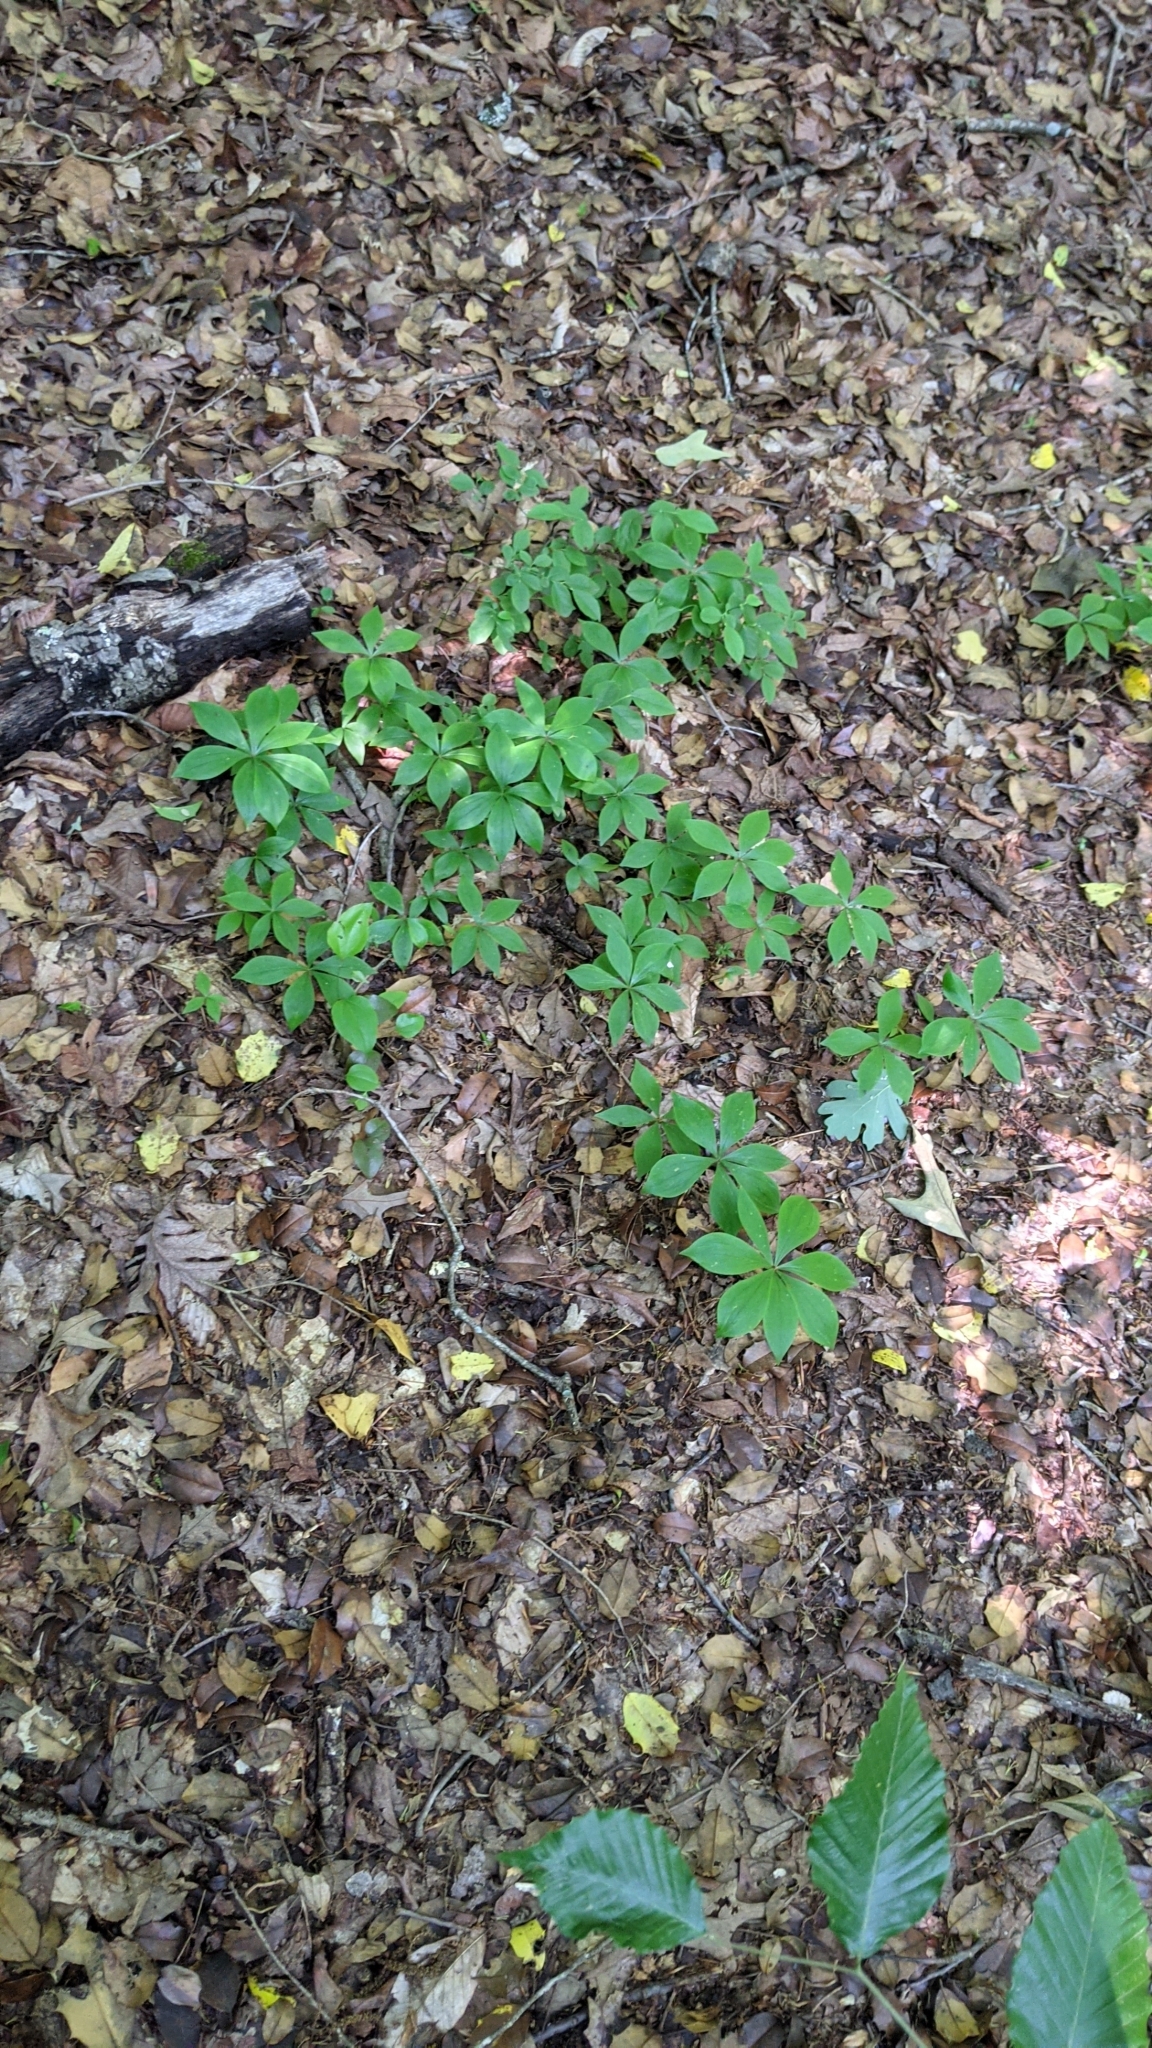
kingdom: Plantae
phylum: Tracheophyta
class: Liliopsida
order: Liliales
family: Liliaceae
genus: Medeola
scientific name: Medeola virginiana
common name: Indian cucumber-root
